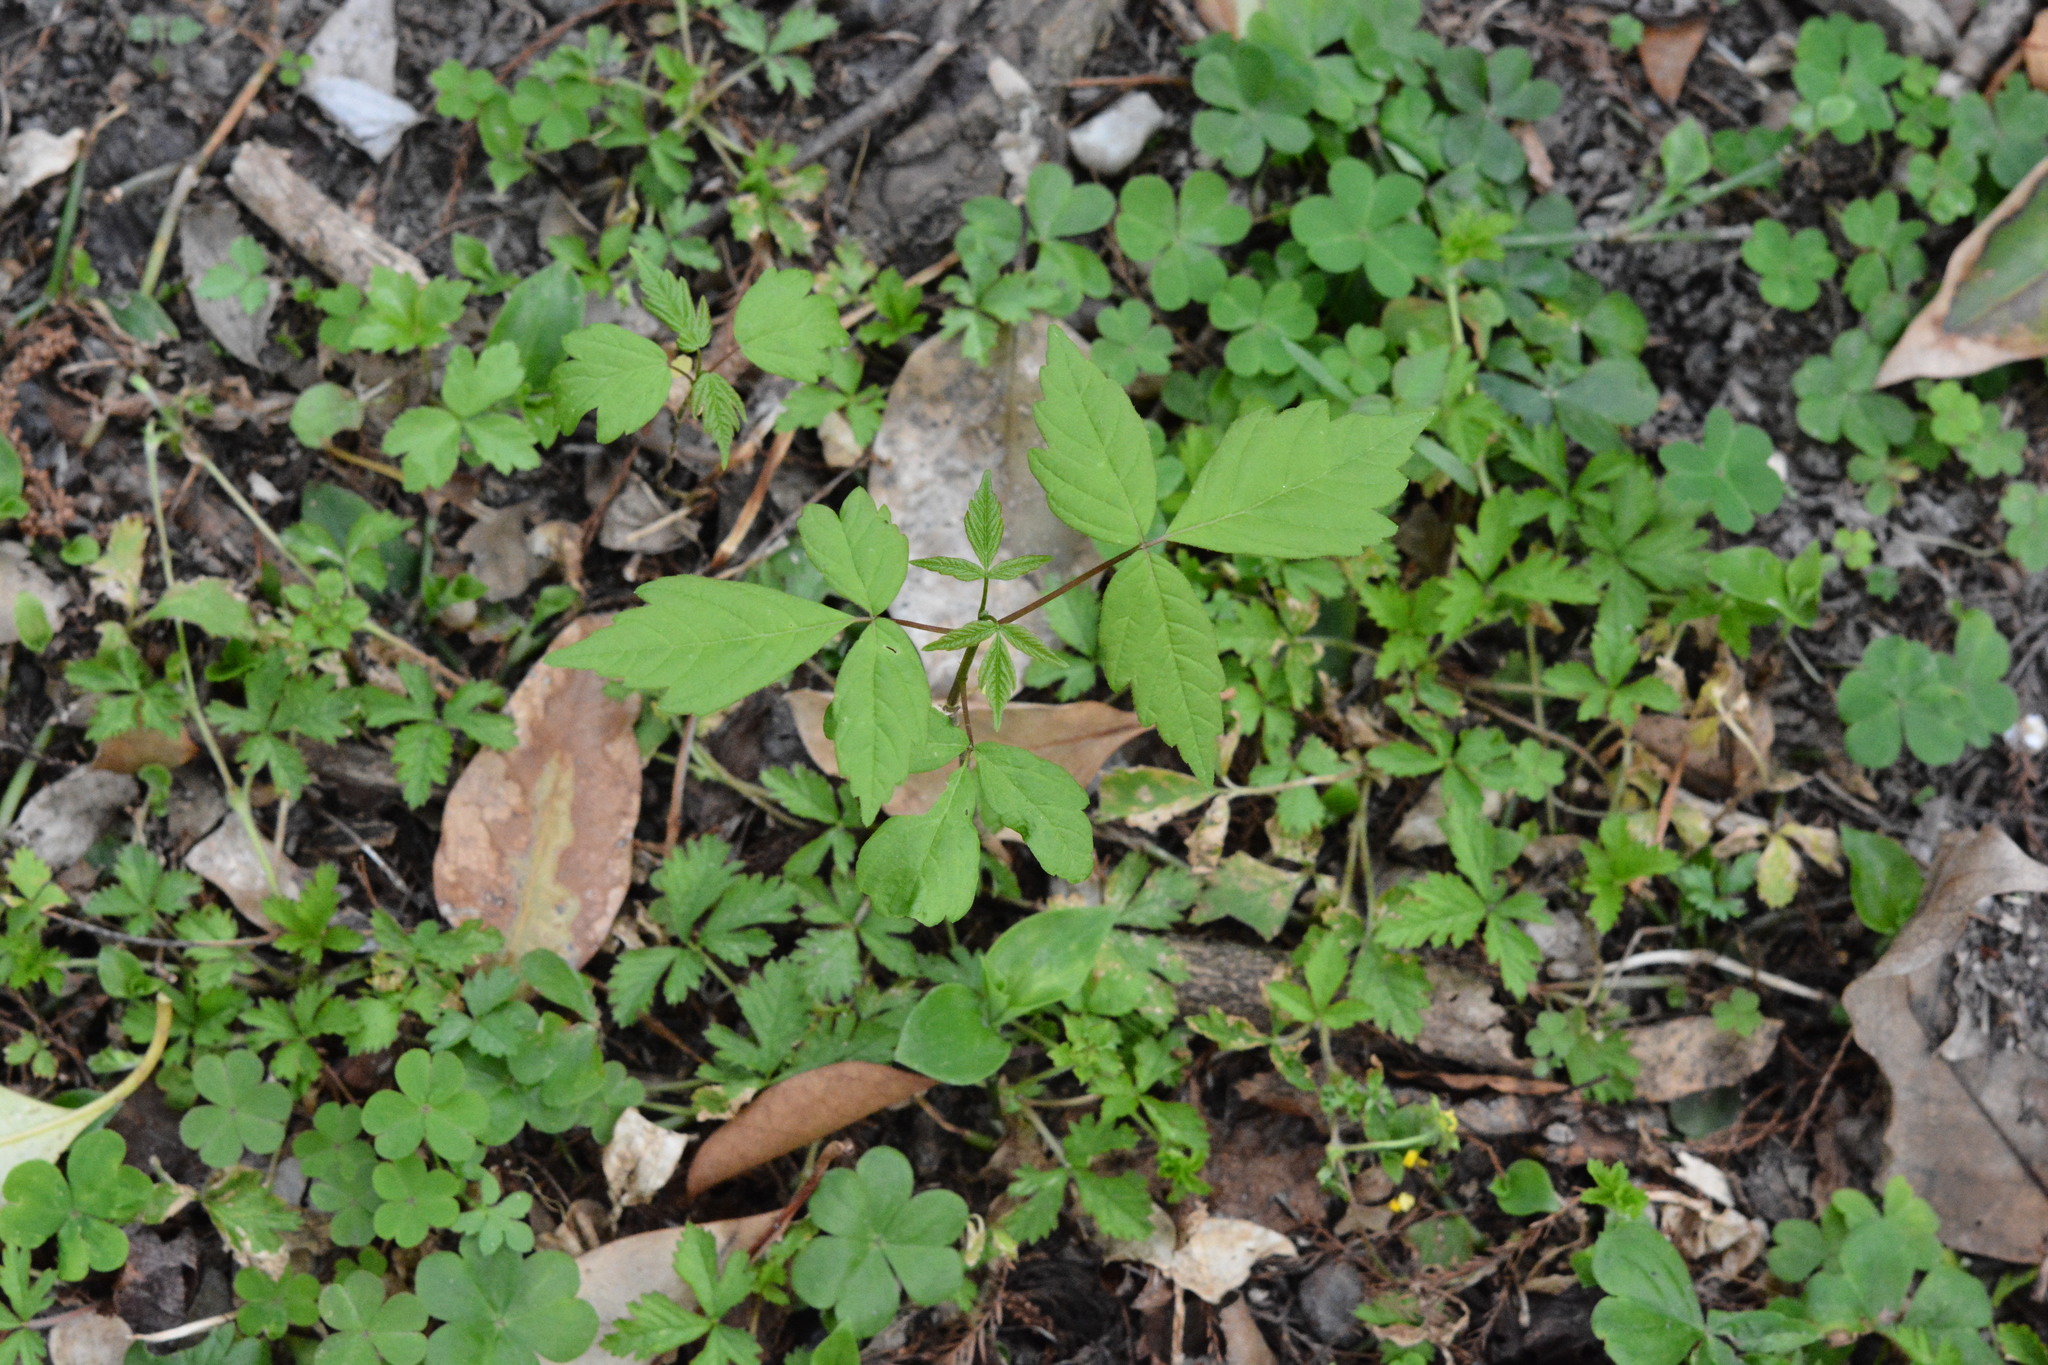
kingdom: Plantae
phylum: Tracheophyta
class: Magnoliopsida
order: Sapindales
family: Sapindaceae
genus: Acer
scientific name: Acer negundo
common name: Ashleaf maple
